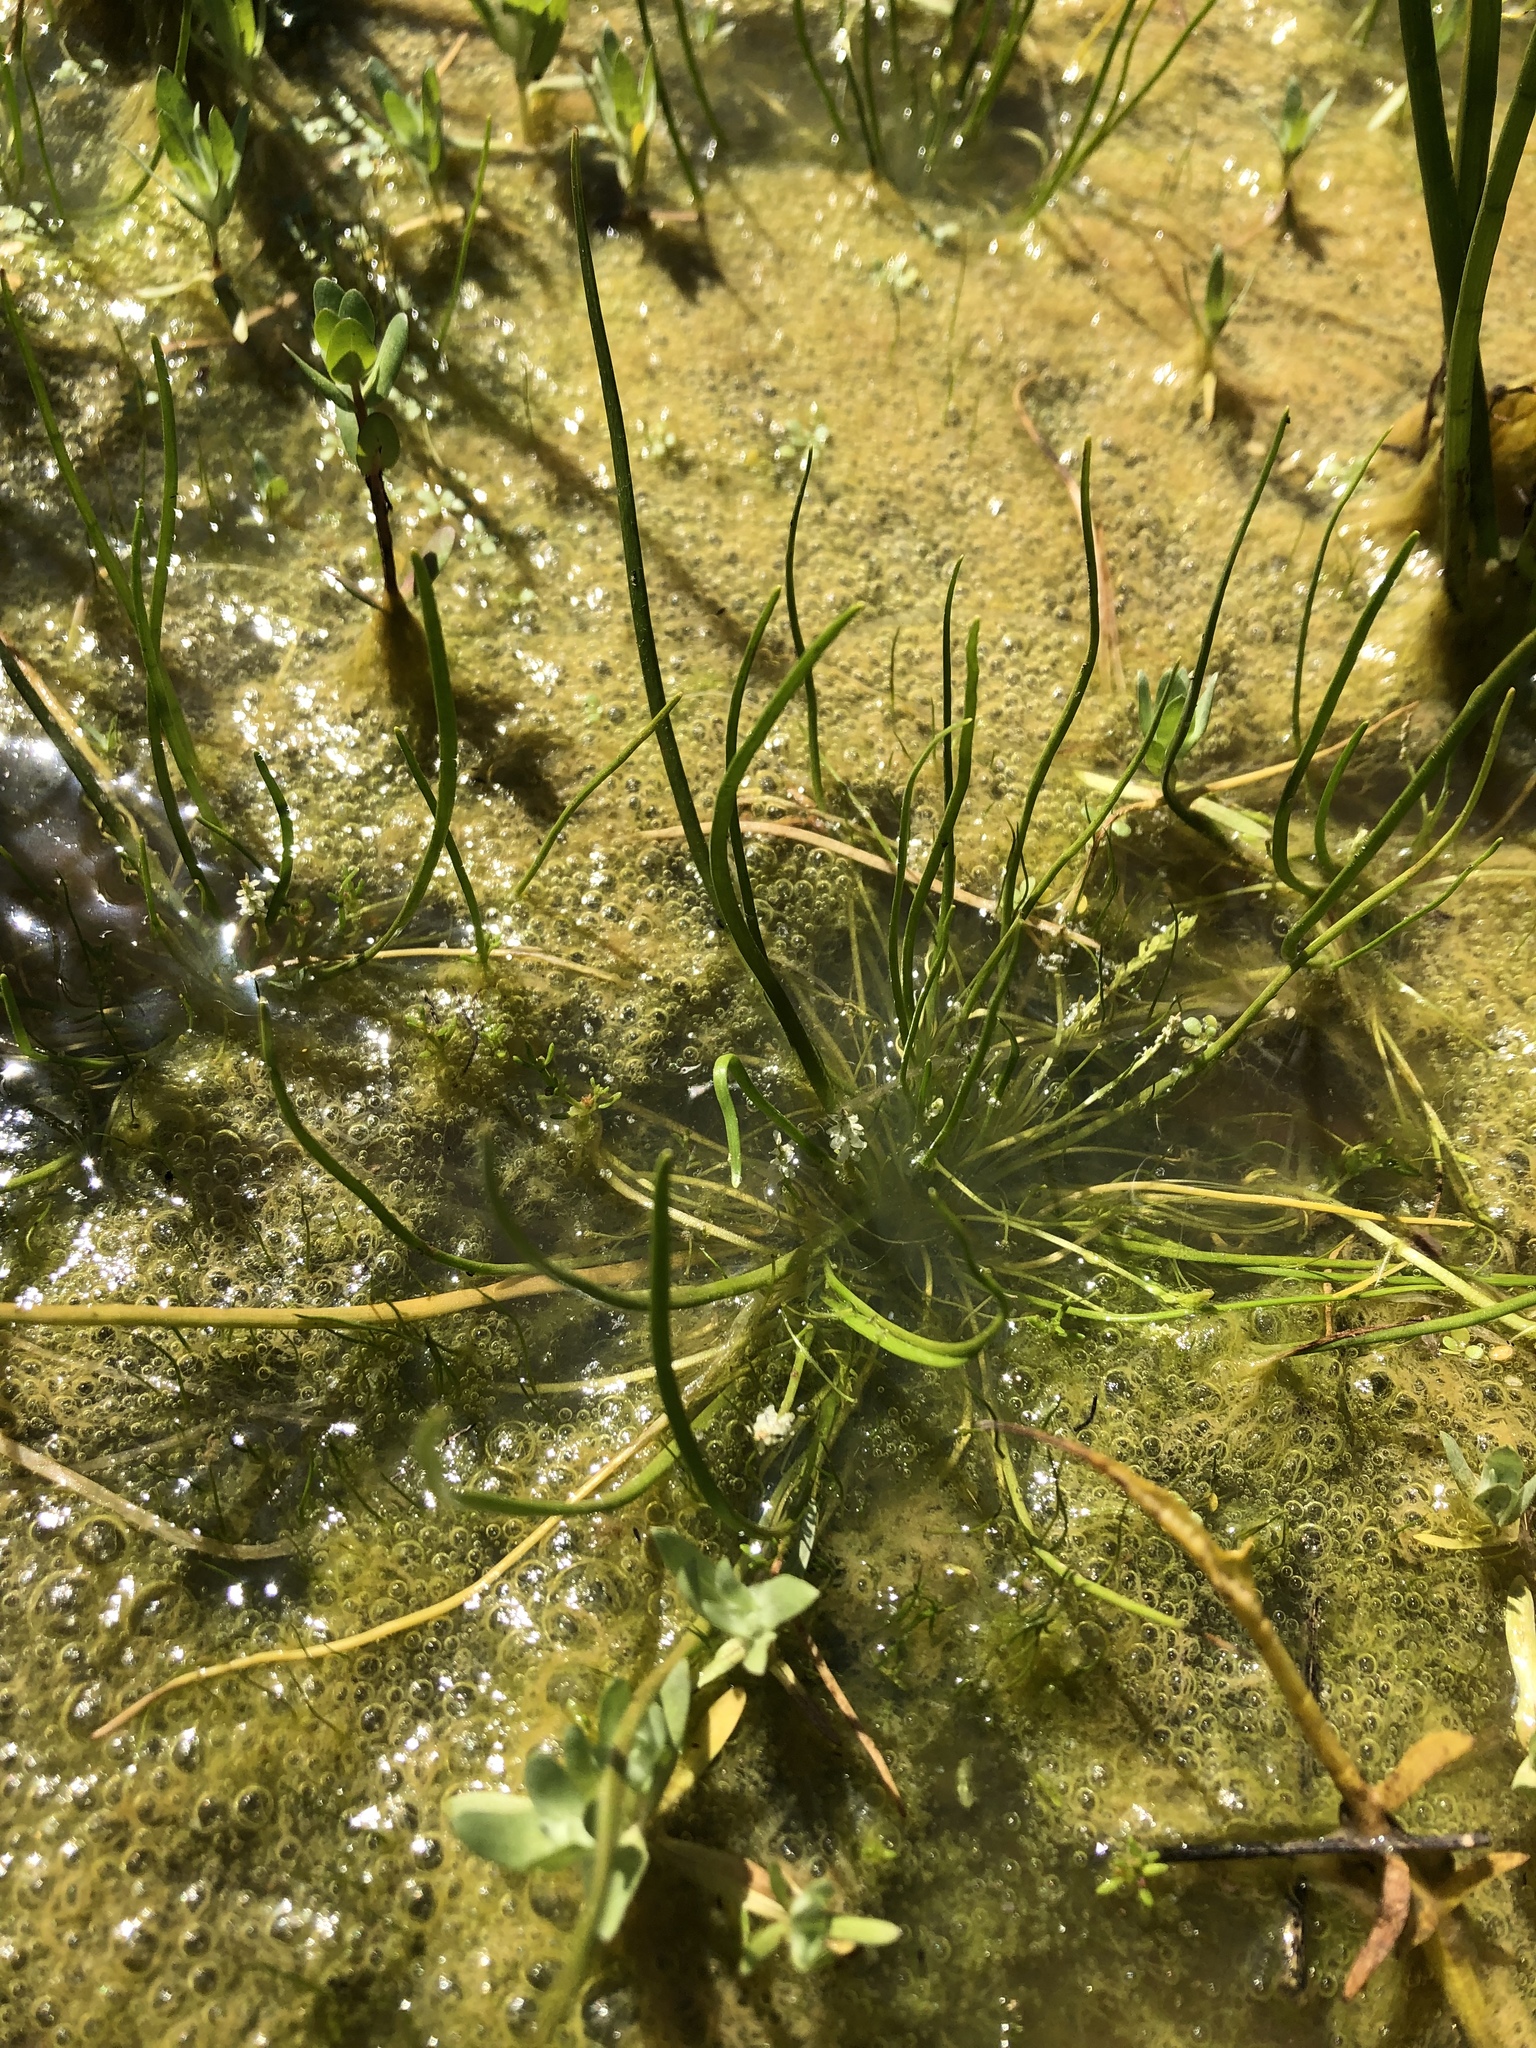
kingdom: Plantae
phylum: Tracheophyta
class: Liliopsida
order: Alismatales
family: Juncaginaceae
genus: Triglochin
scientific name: Triglochin scilloides
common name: Awl-leaved lilaea
